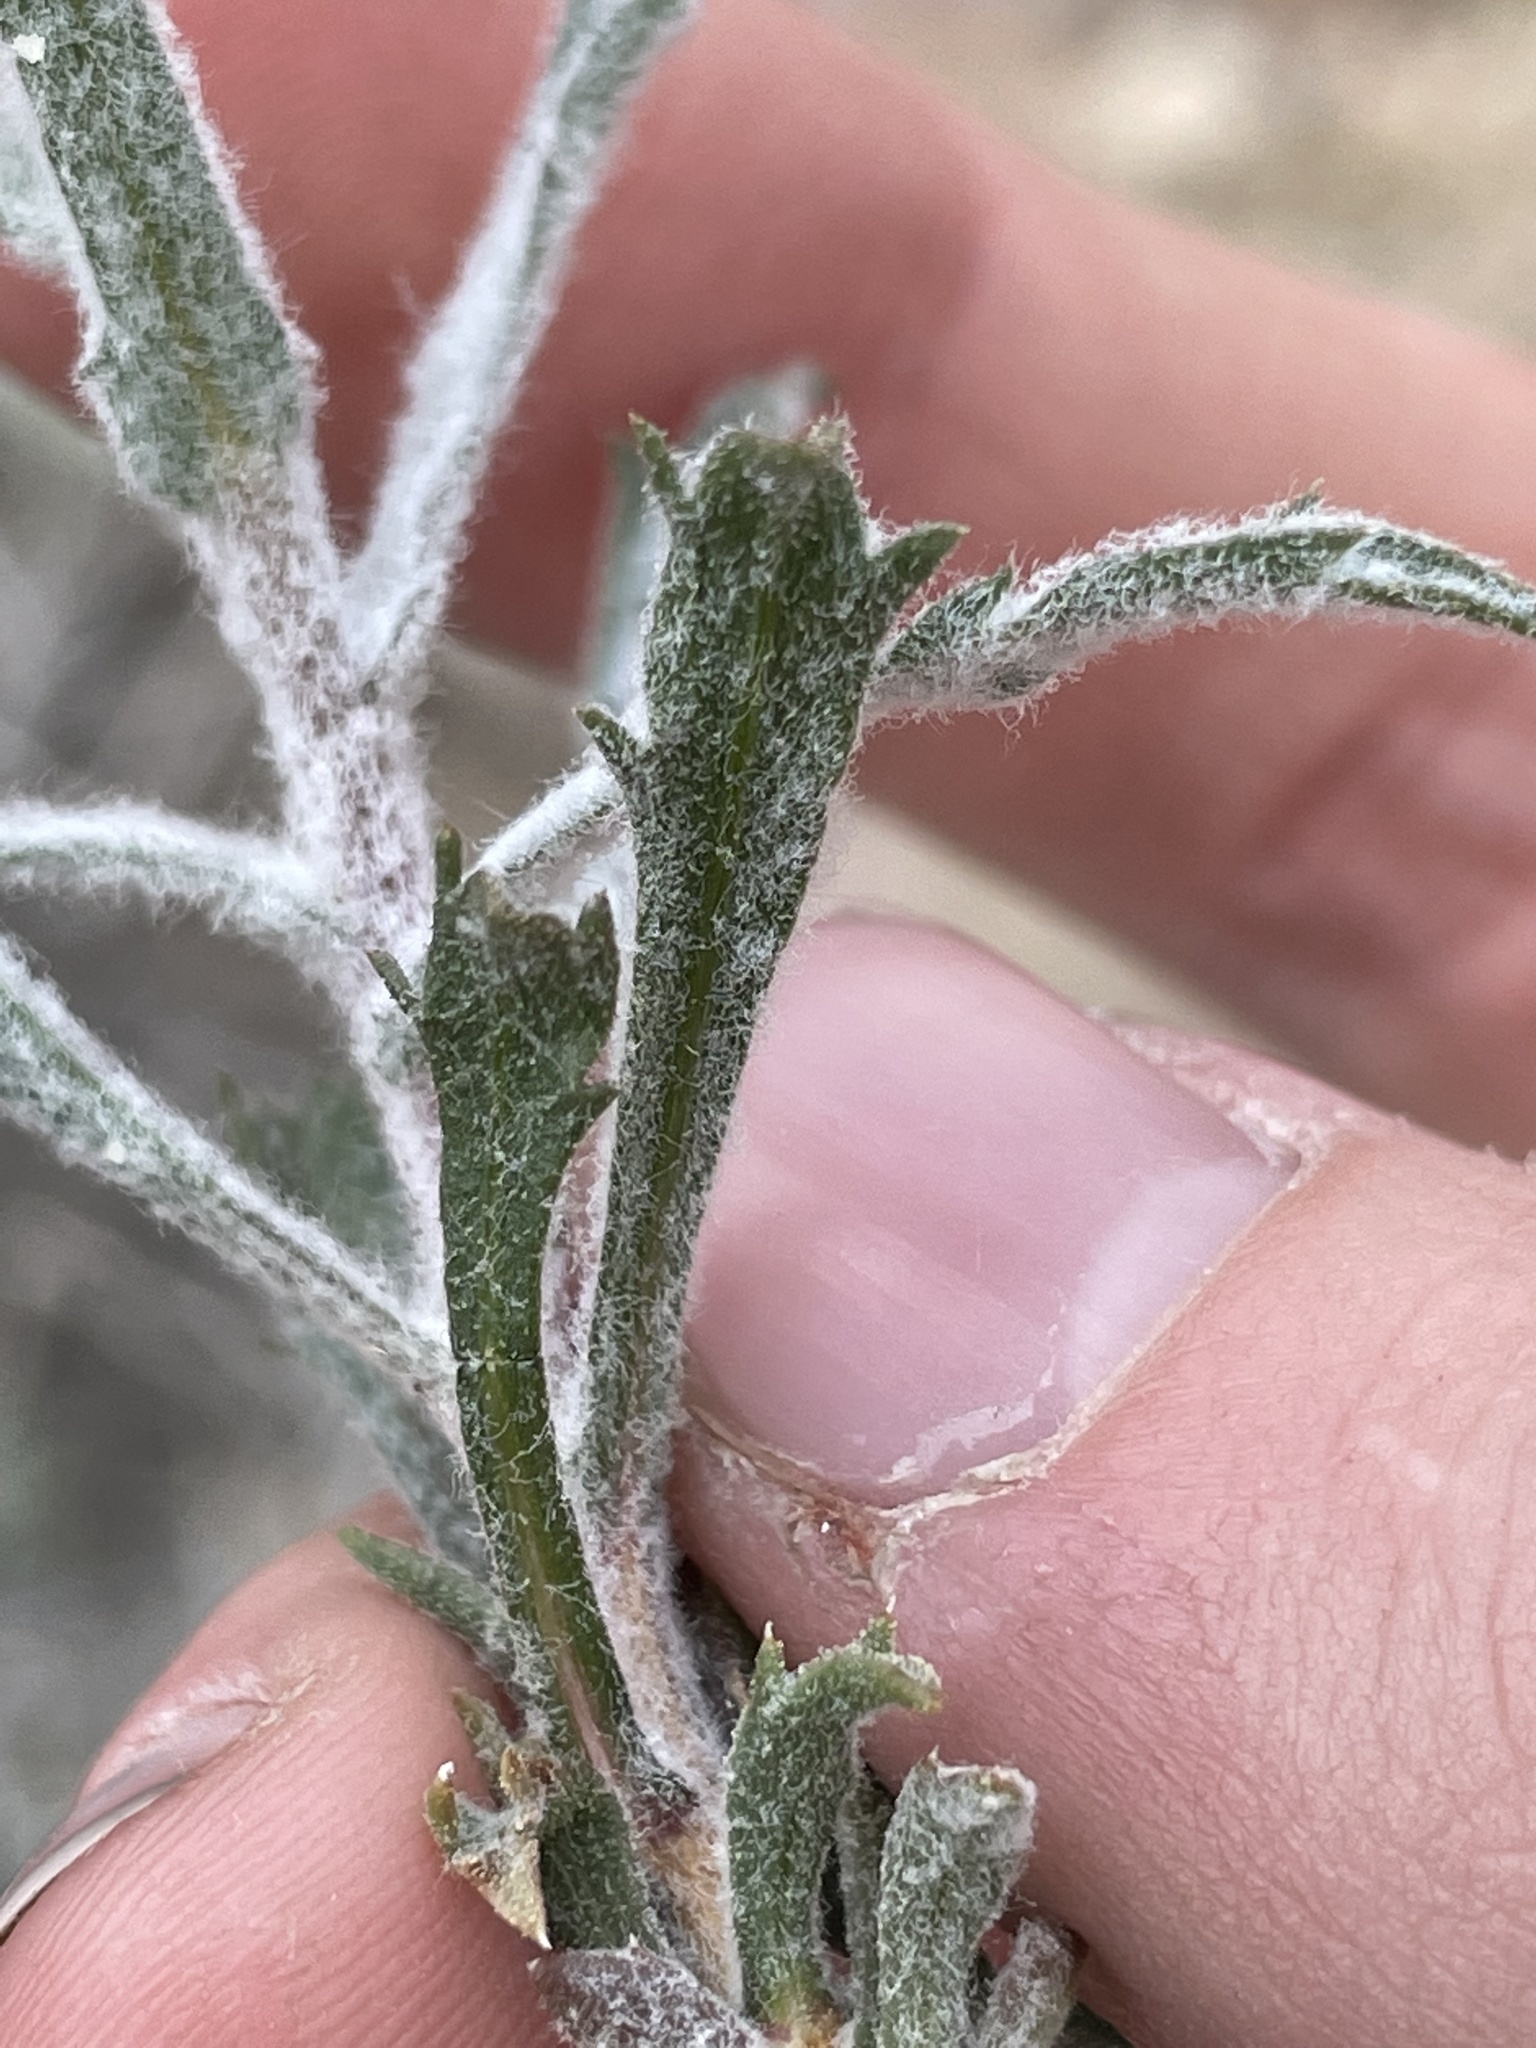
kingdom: Plantae
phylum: Tracheophyta
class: Magnoliopsida
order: Asterales
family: Asteraceae
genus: Xylorhiza
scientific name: Xylorhiza tortifolia
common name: Hurt-leaf woody-aster
